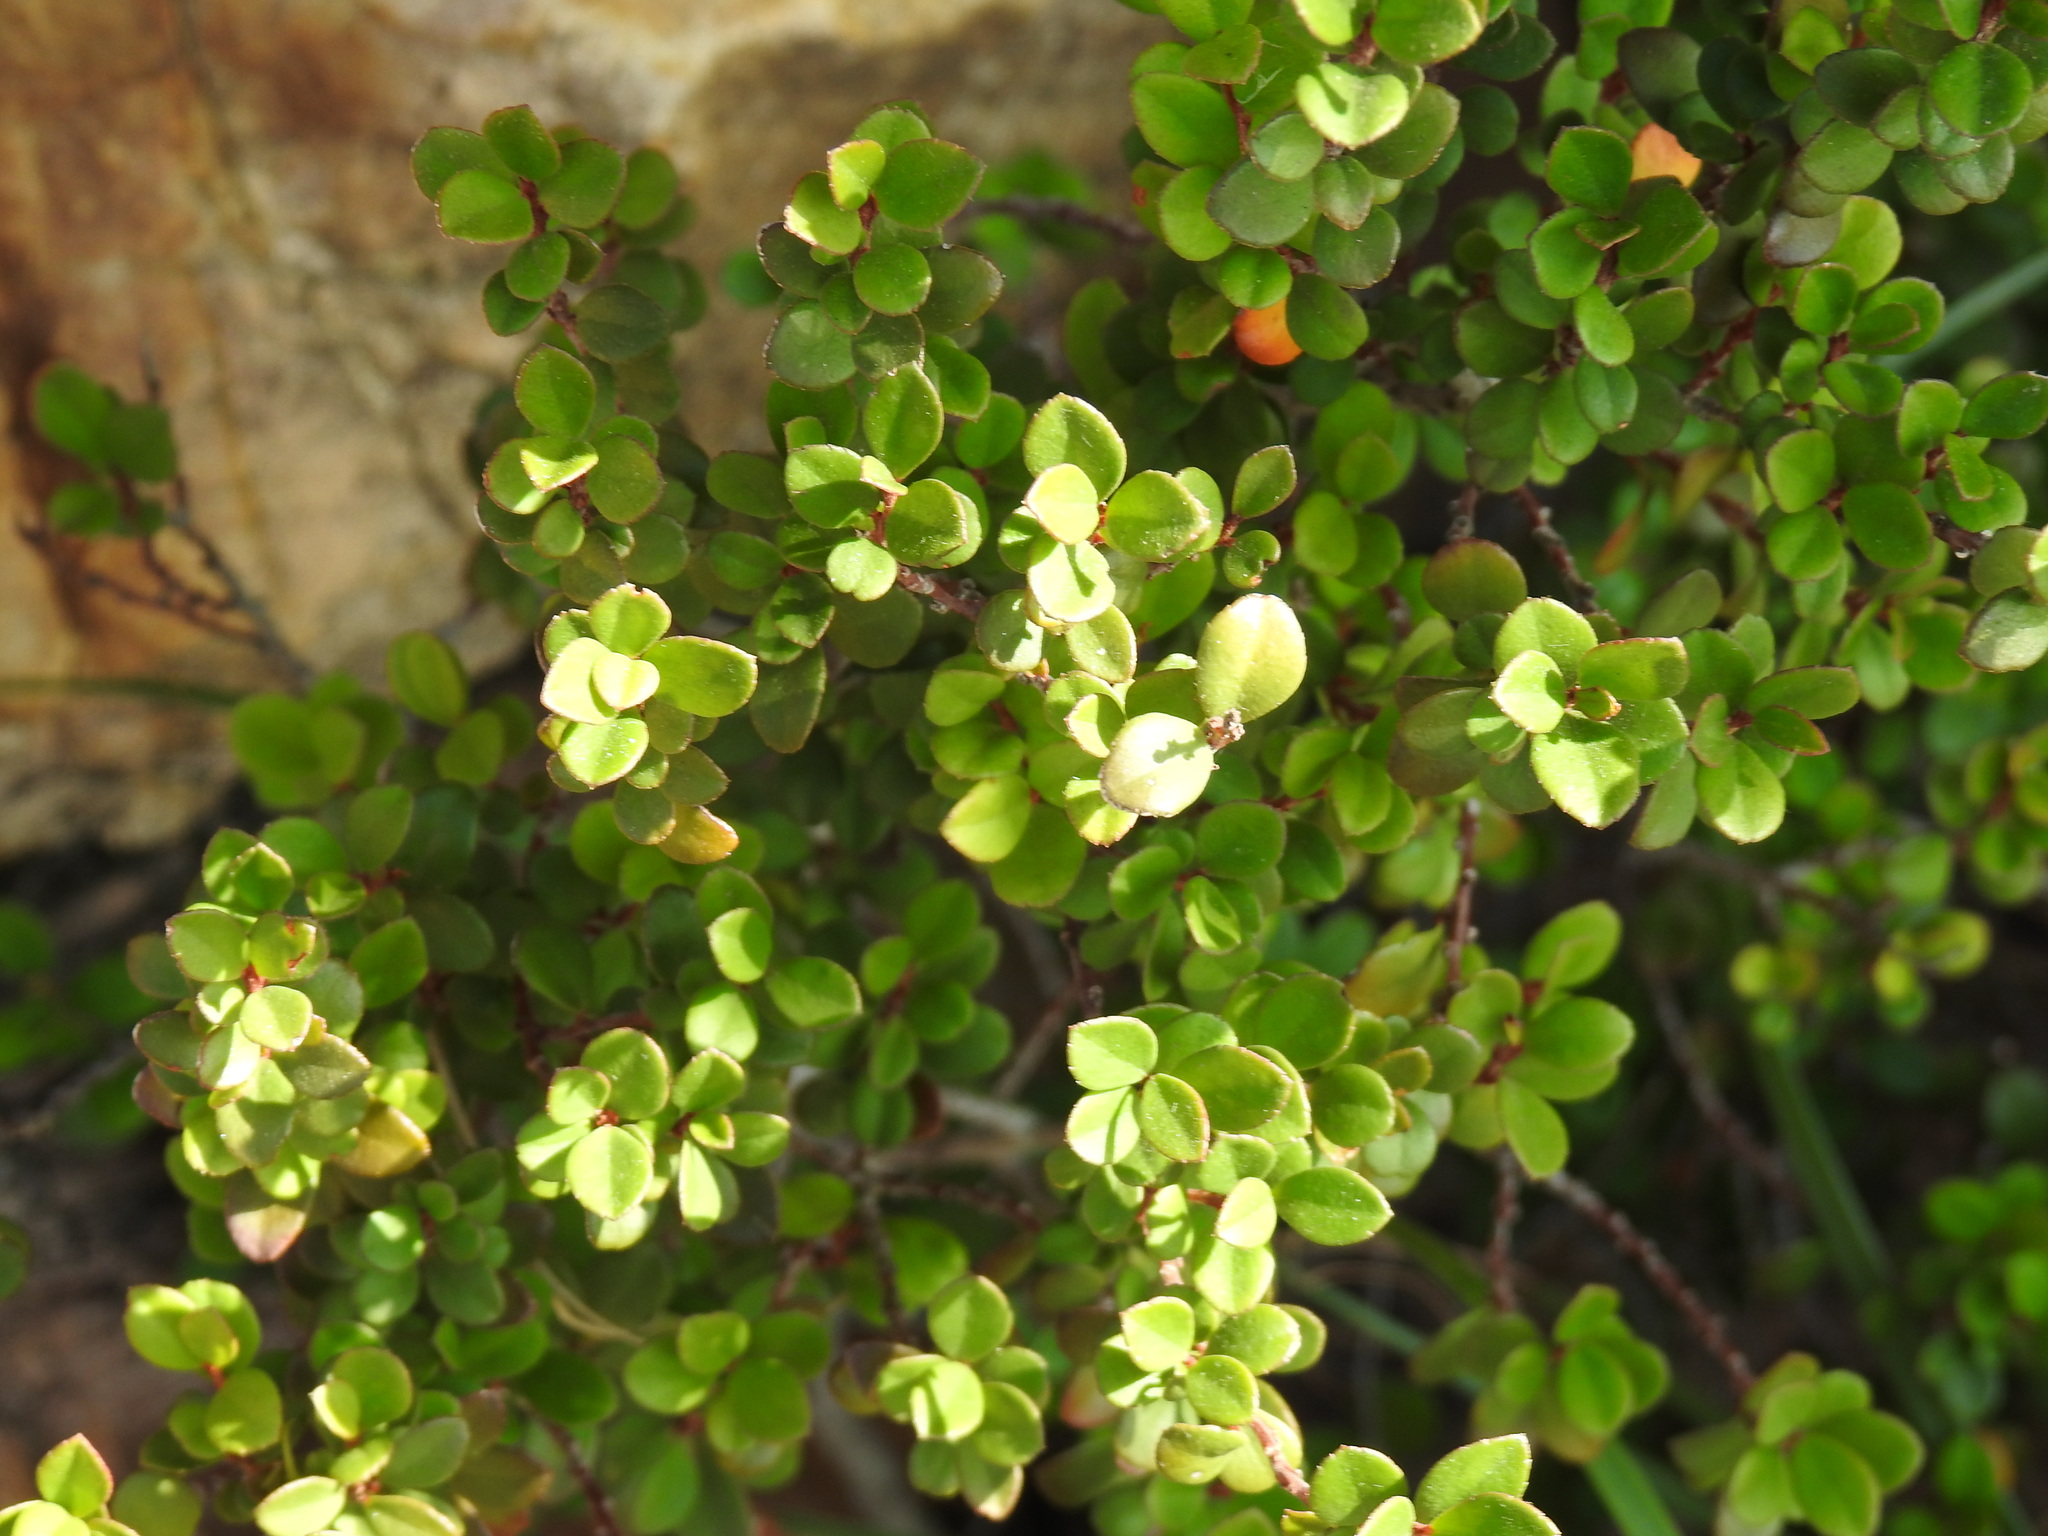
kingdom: Plantae
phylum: Tracheophyta
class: Magnoliopsida
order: Ericales
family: Primulaceae
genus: Myrsine
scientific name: Myrsine africana
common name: African-boxwood
